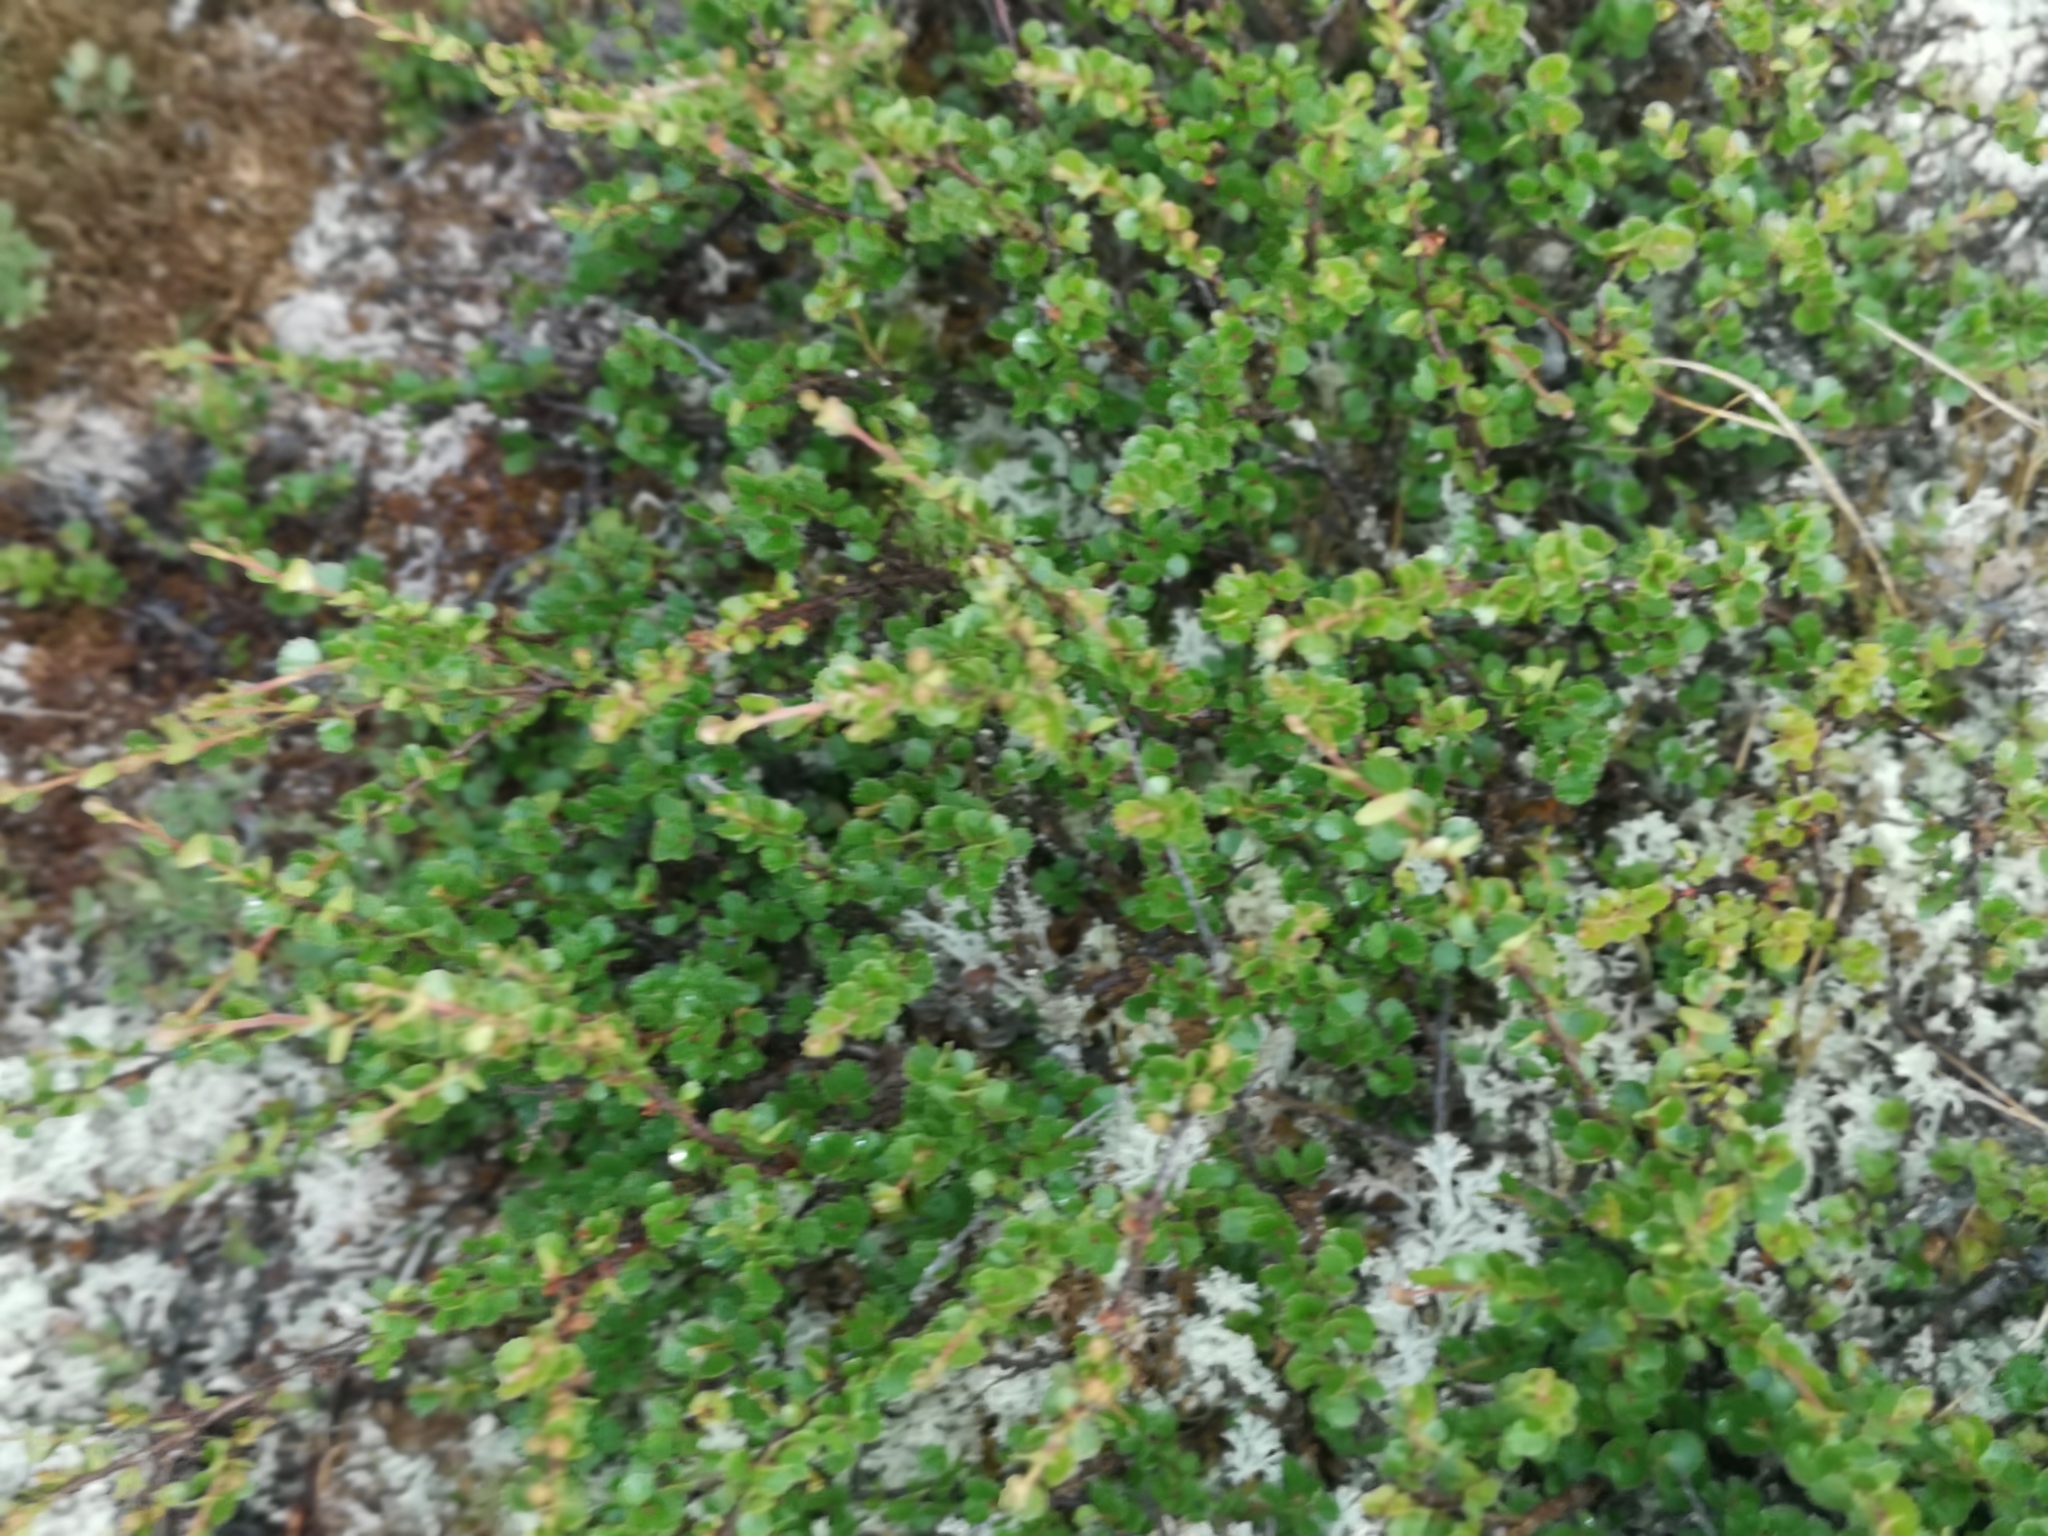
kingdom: Plantae
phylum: Tracheophyta
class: Magnoliopsida
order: Fagales
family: Betulaceae
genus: Betula
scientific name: Betula nana
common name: Arctic dwarf birch
